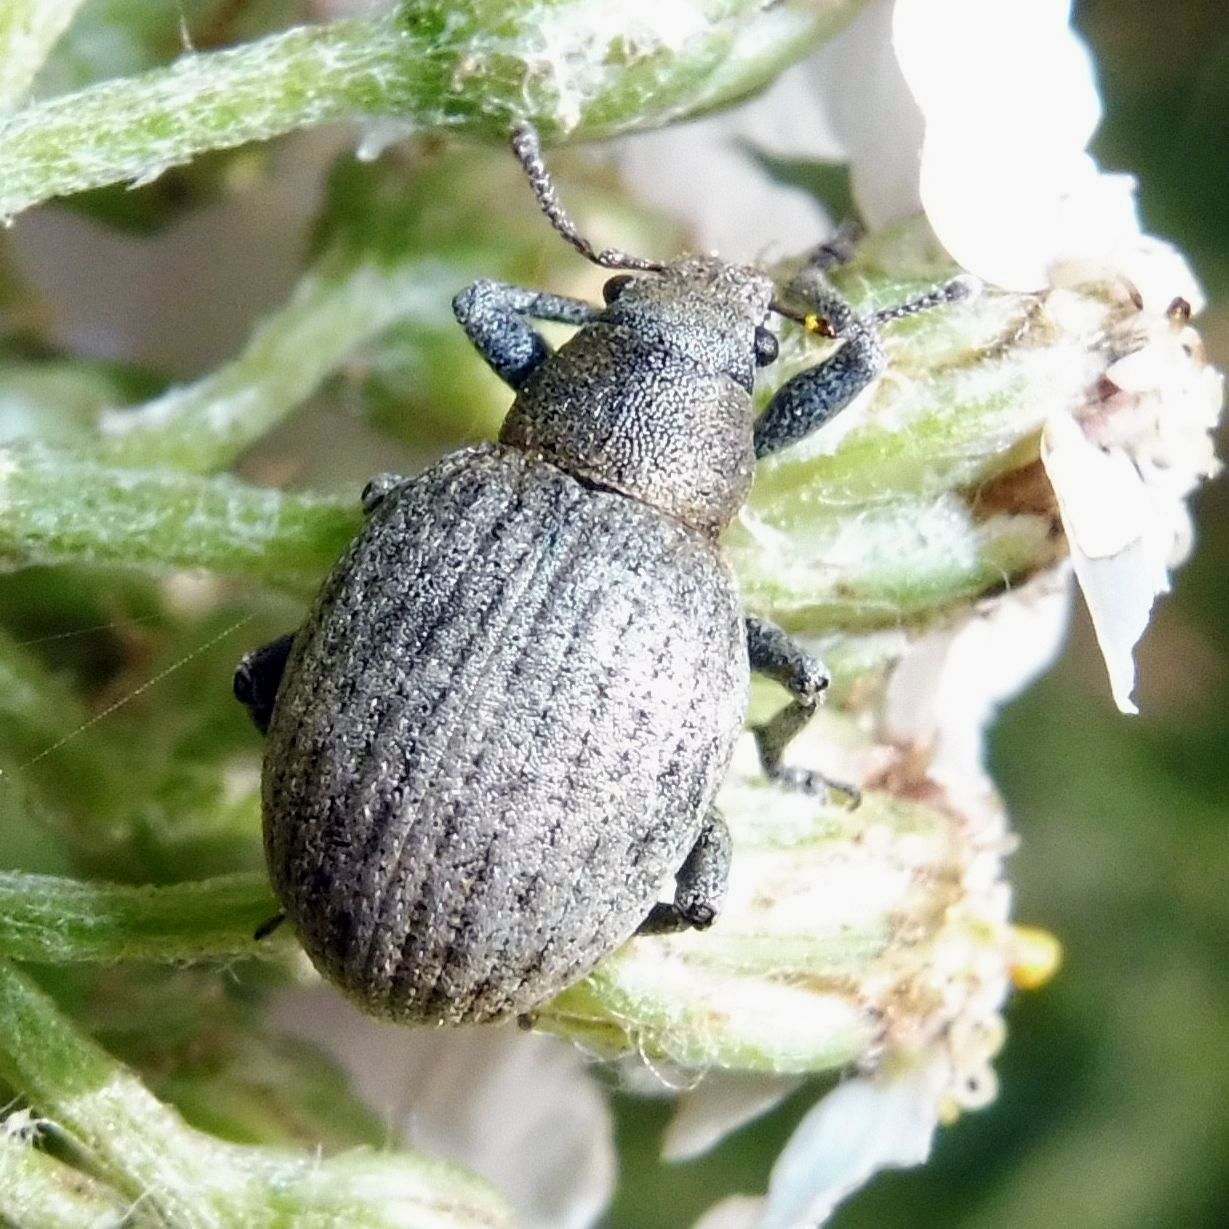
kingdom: Animalia
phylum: Arthropoda
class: Insecta
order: Coleoptera
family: Curculionidae
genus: Attactagenus
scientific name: Attactagenus plumbeus
